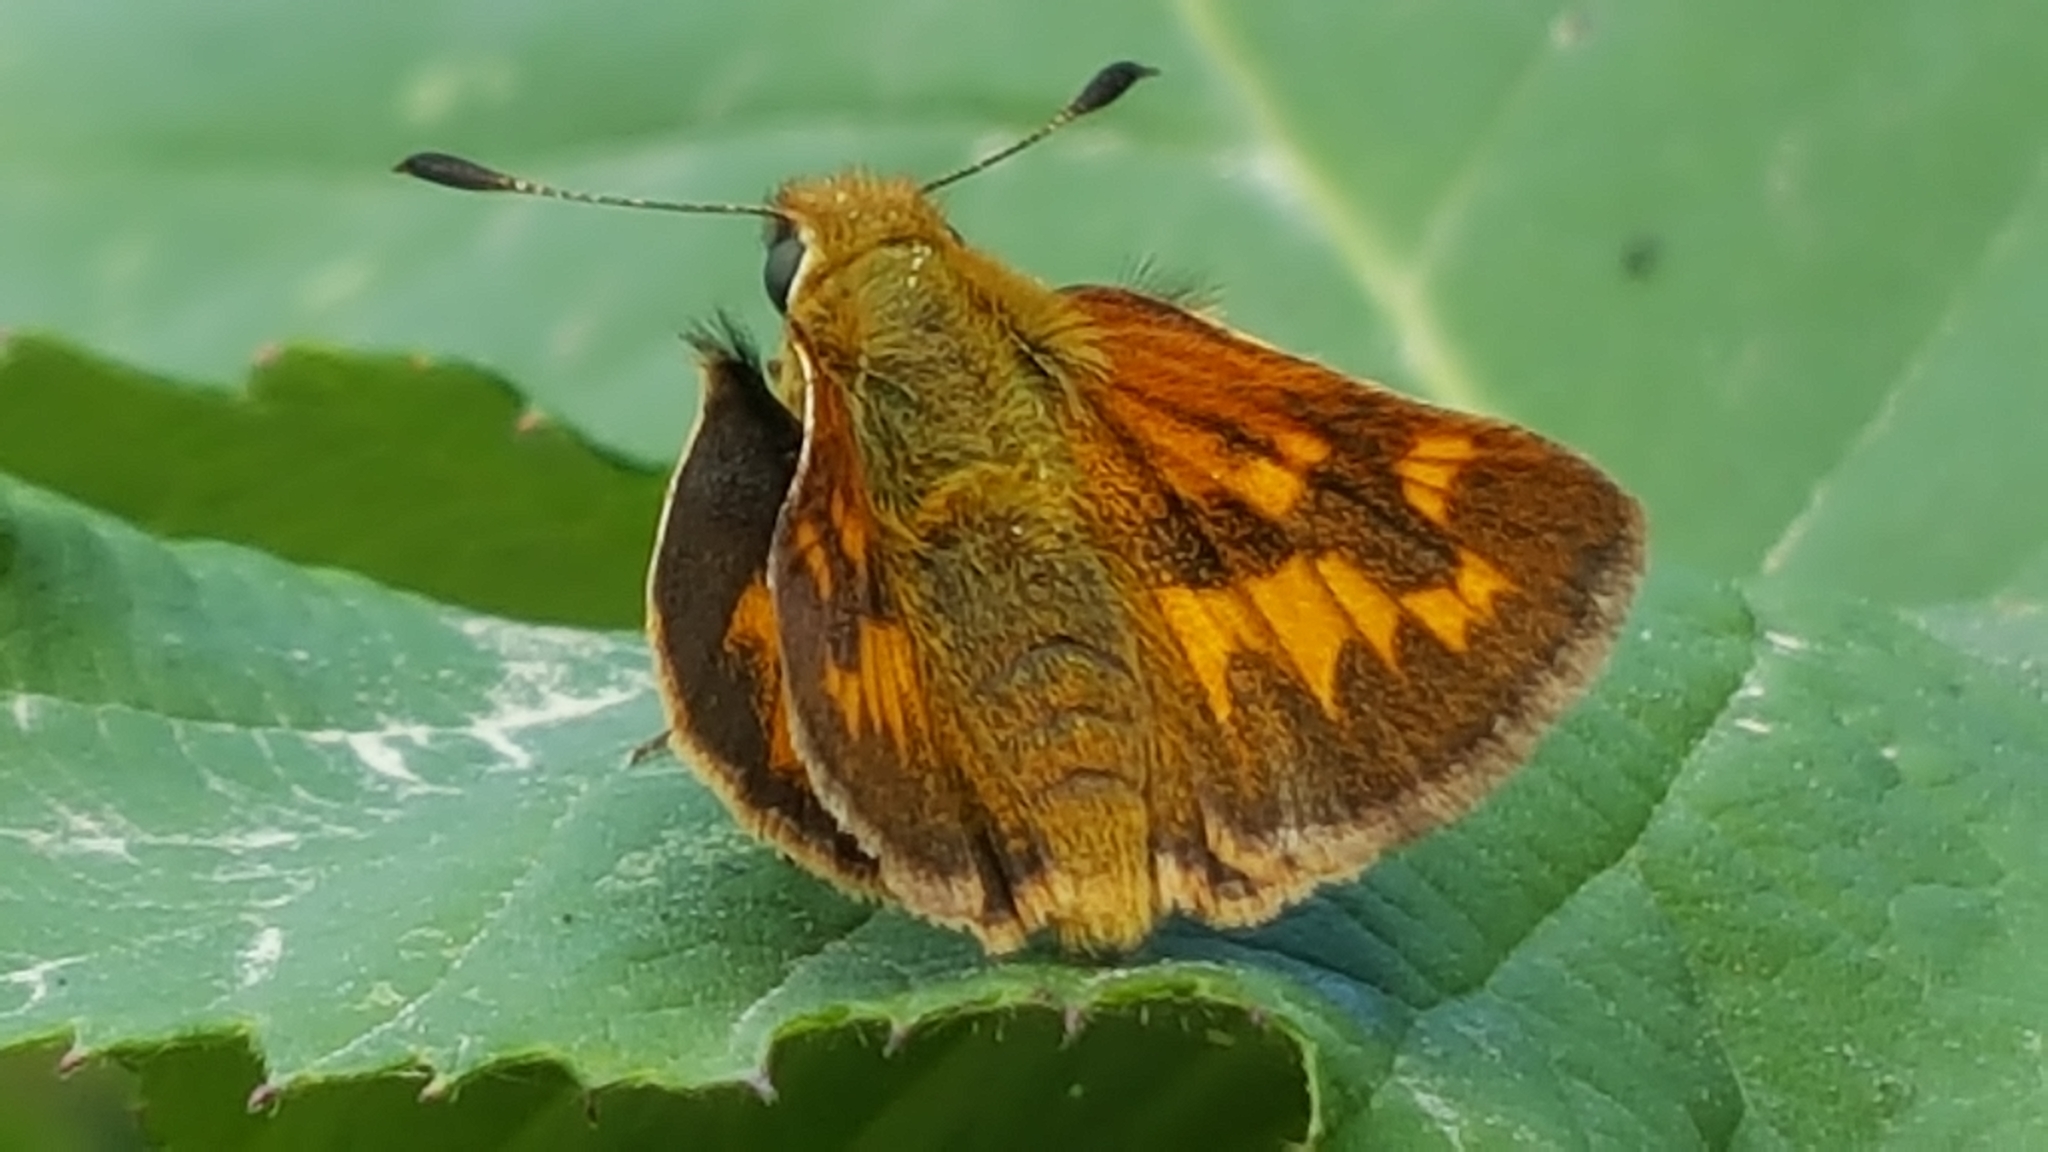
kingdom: Animalia
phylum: Arthropoda
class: Insecta
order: Lepidoptera
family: Hesperiidae
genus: Ochlodes
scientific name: Ochlodes sylvanoides
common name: Woodland skipper
